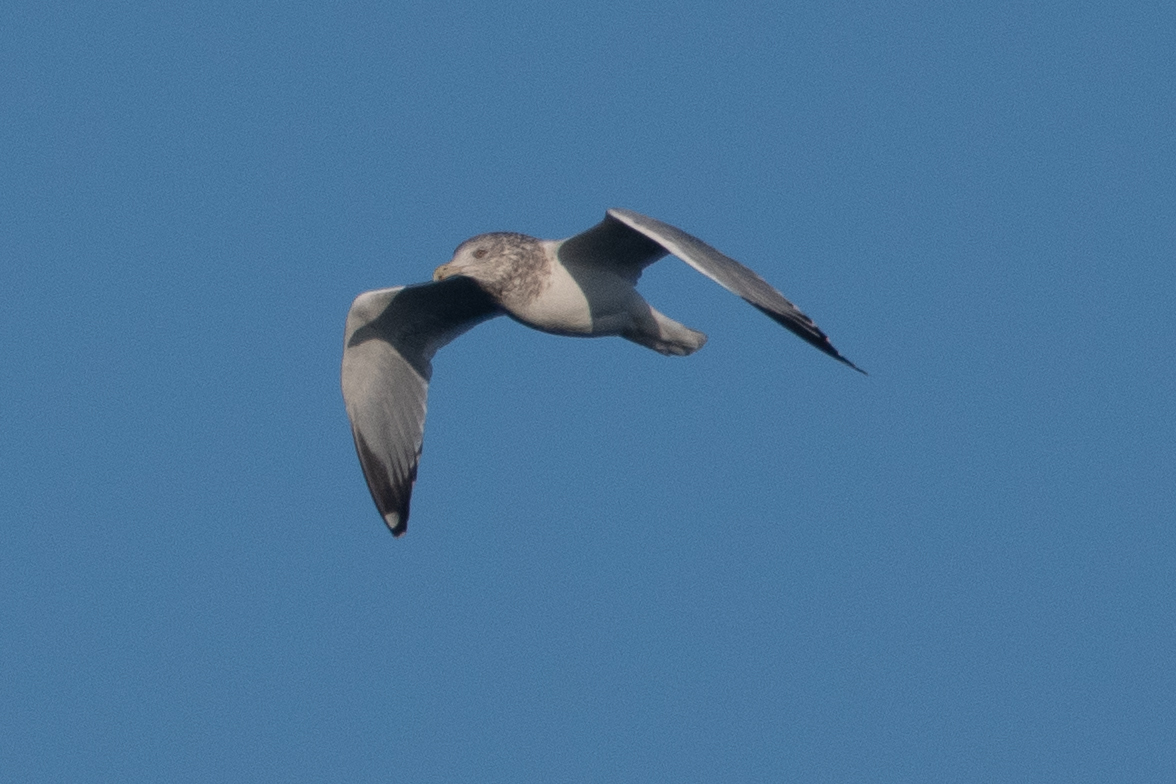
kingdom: Animalia
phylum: Chordata
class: Aves
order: Charadriiformes
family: Laridae
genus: Larus
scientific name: Larus argentatus
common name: Herring gull
